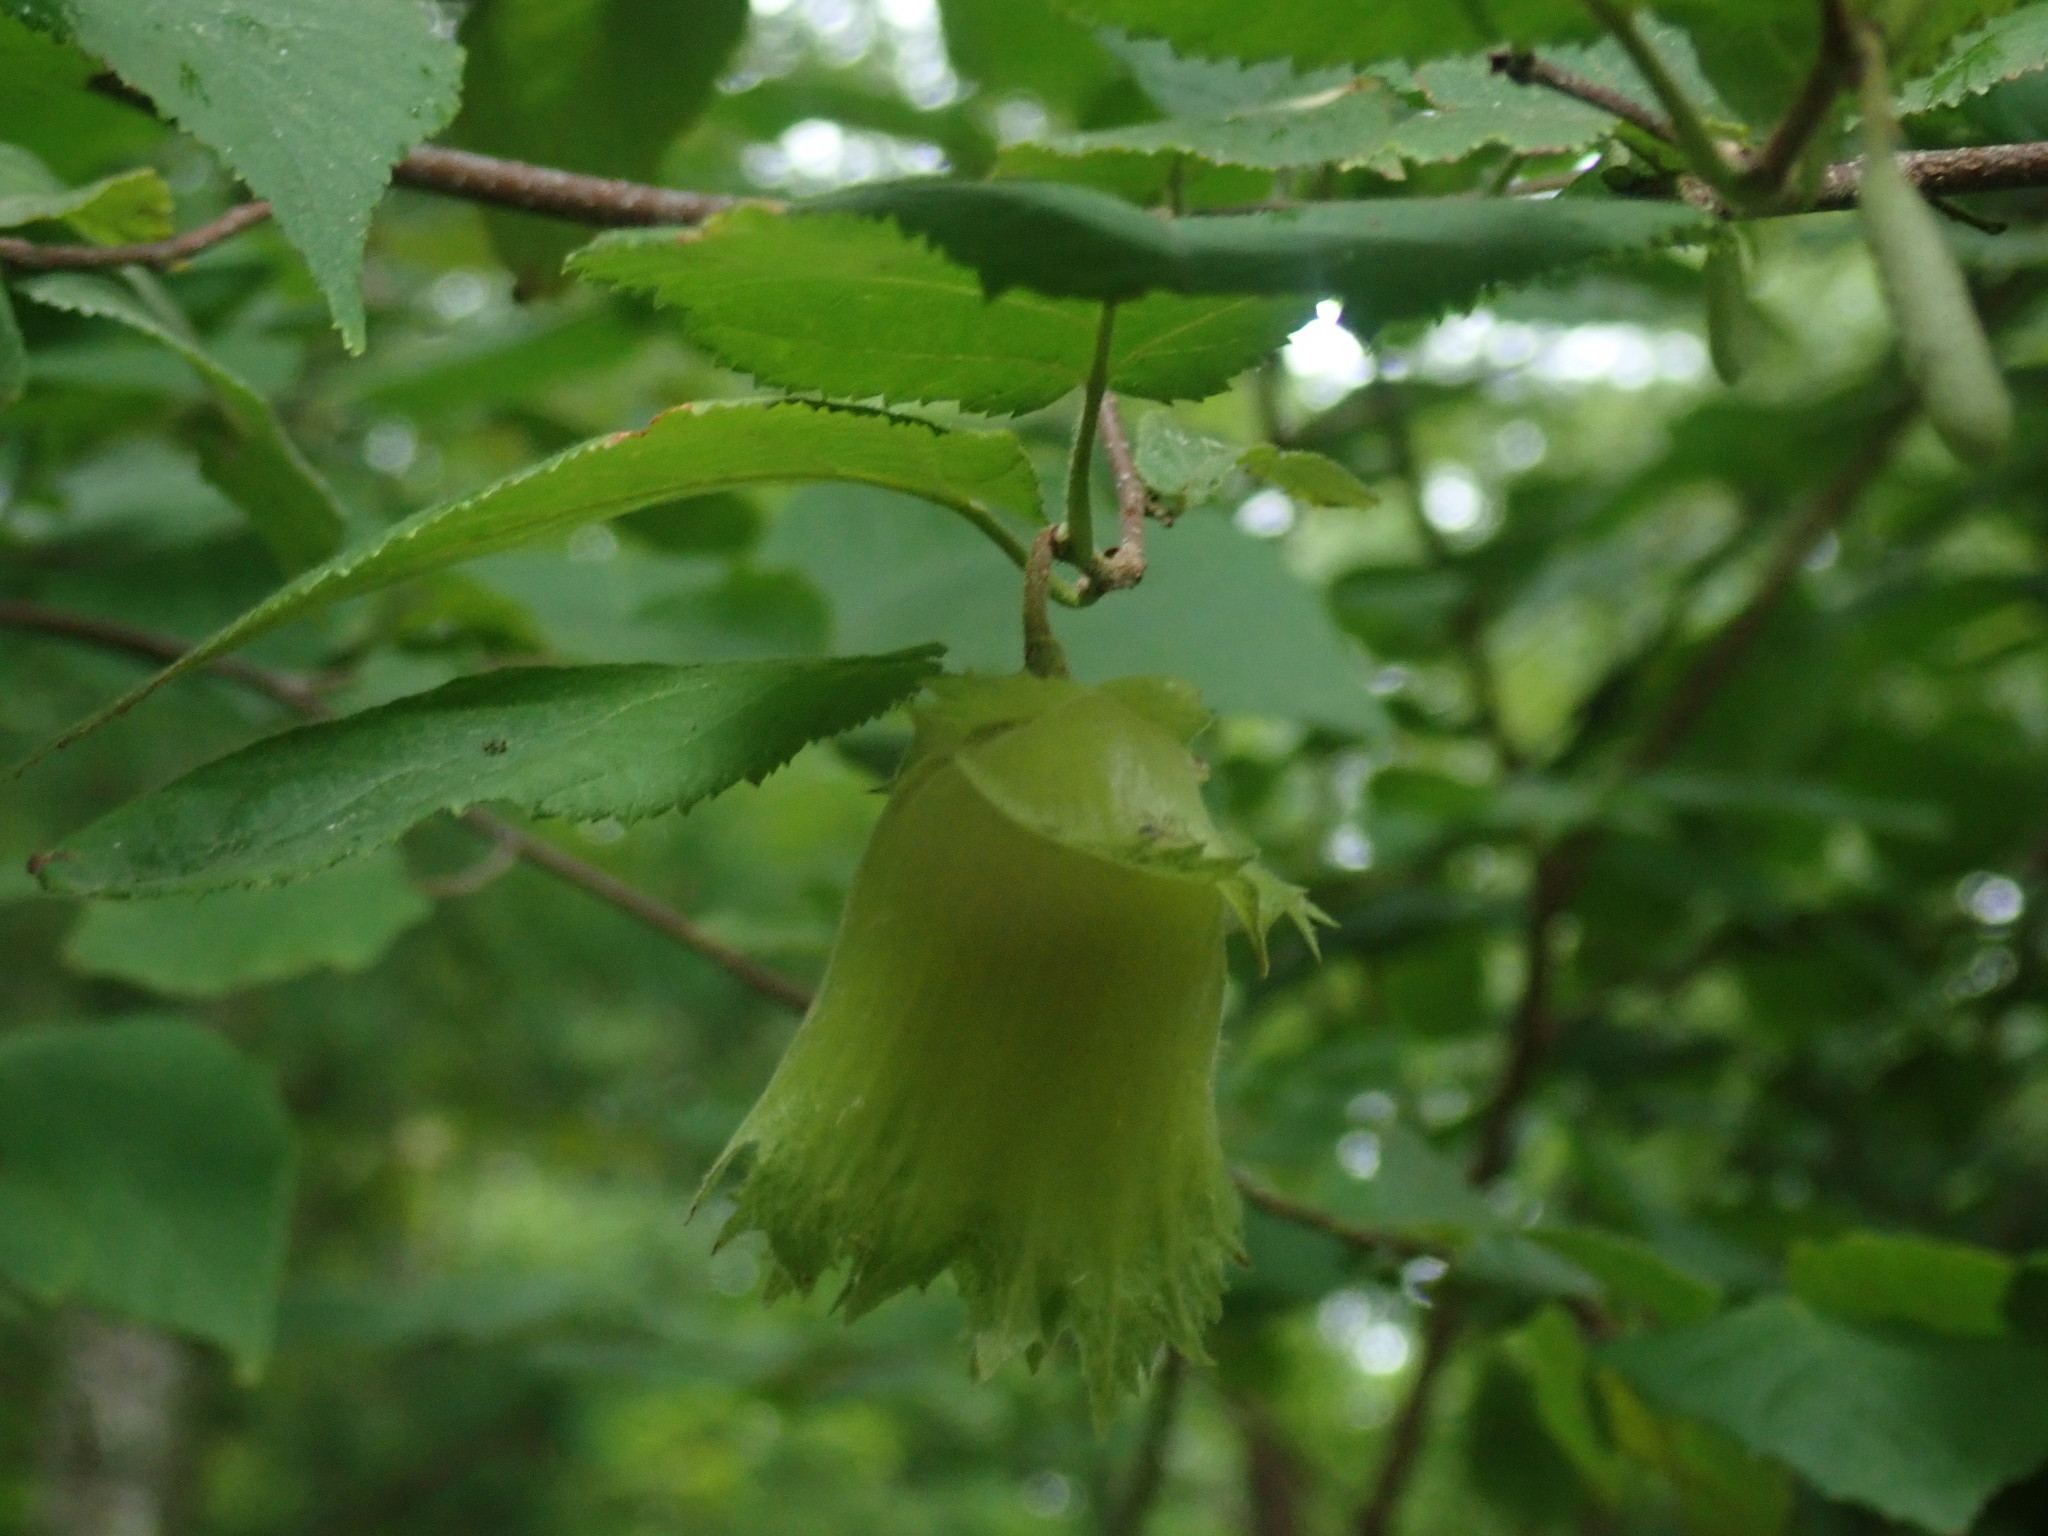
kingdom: Plantae
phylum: Tracheophyta
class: Magnoliopsida
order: Fagales
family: Betulaceae
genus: Corylus
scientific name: Corylus americana
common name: American hazel
